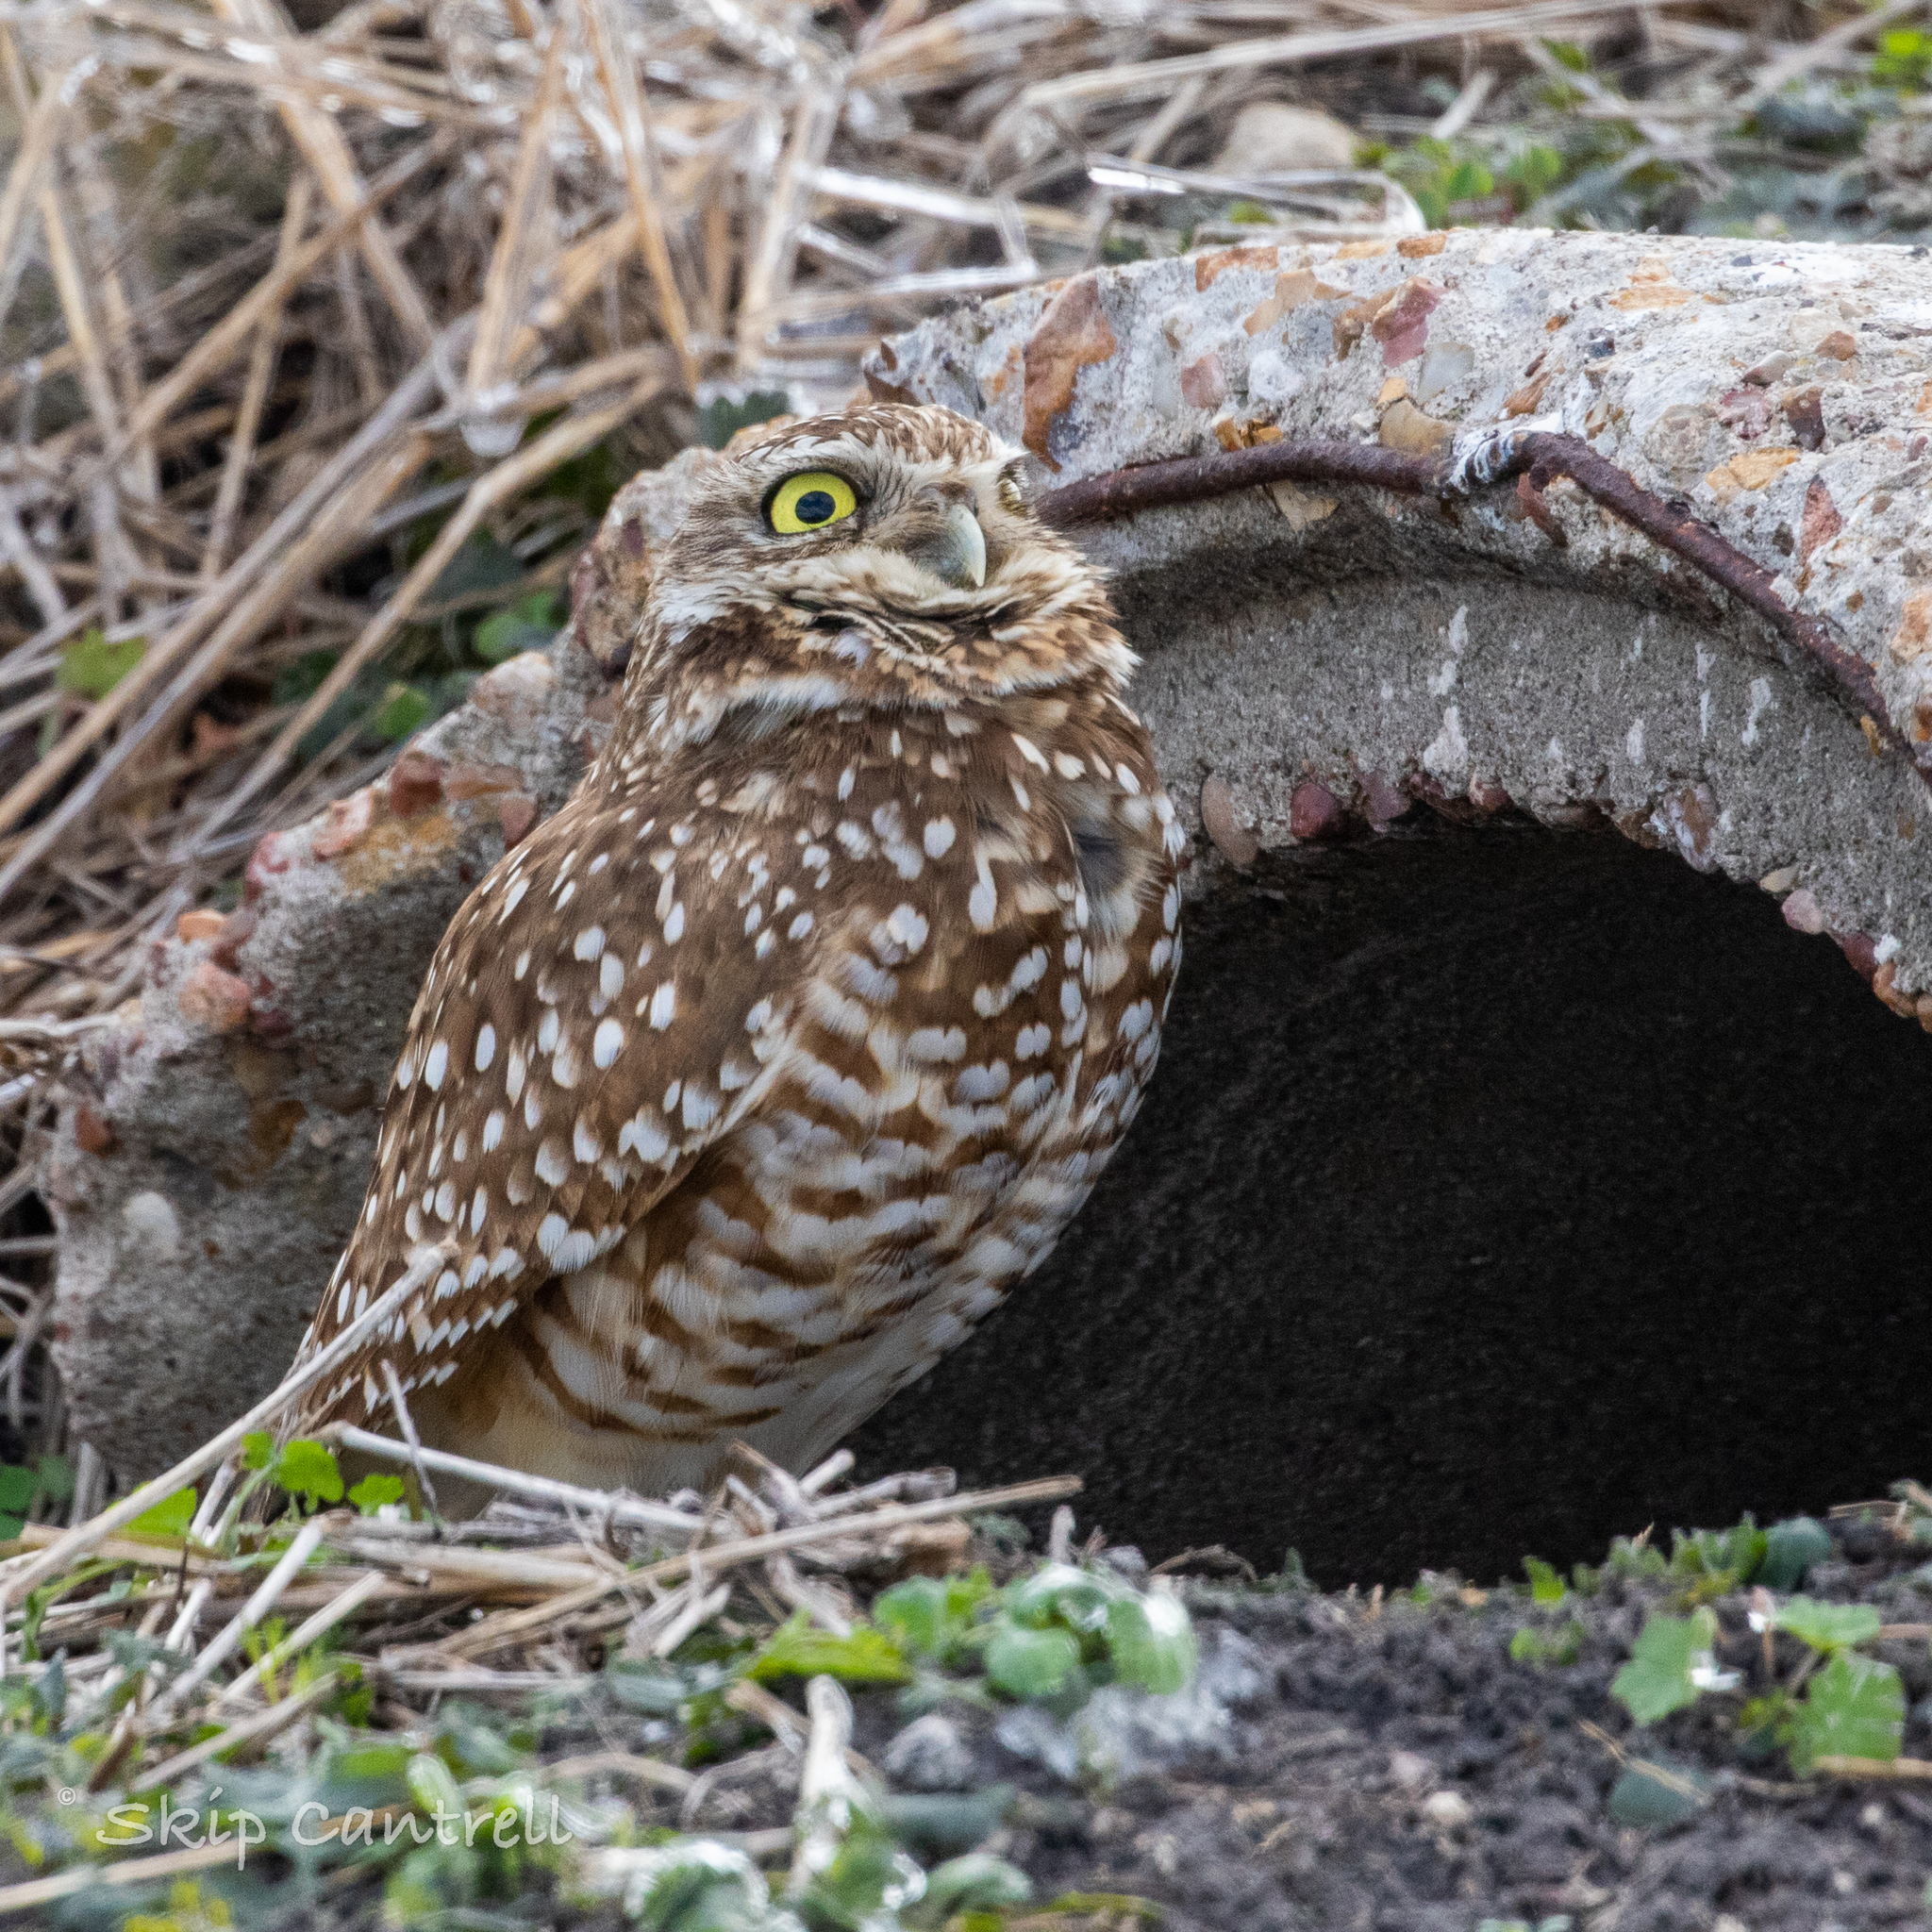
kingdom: Animalia
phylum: Chordata
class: Aves
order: Strigiformes
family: Strigidae
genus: Athene
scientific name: Athene cunicularia
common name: Burrowing owl
